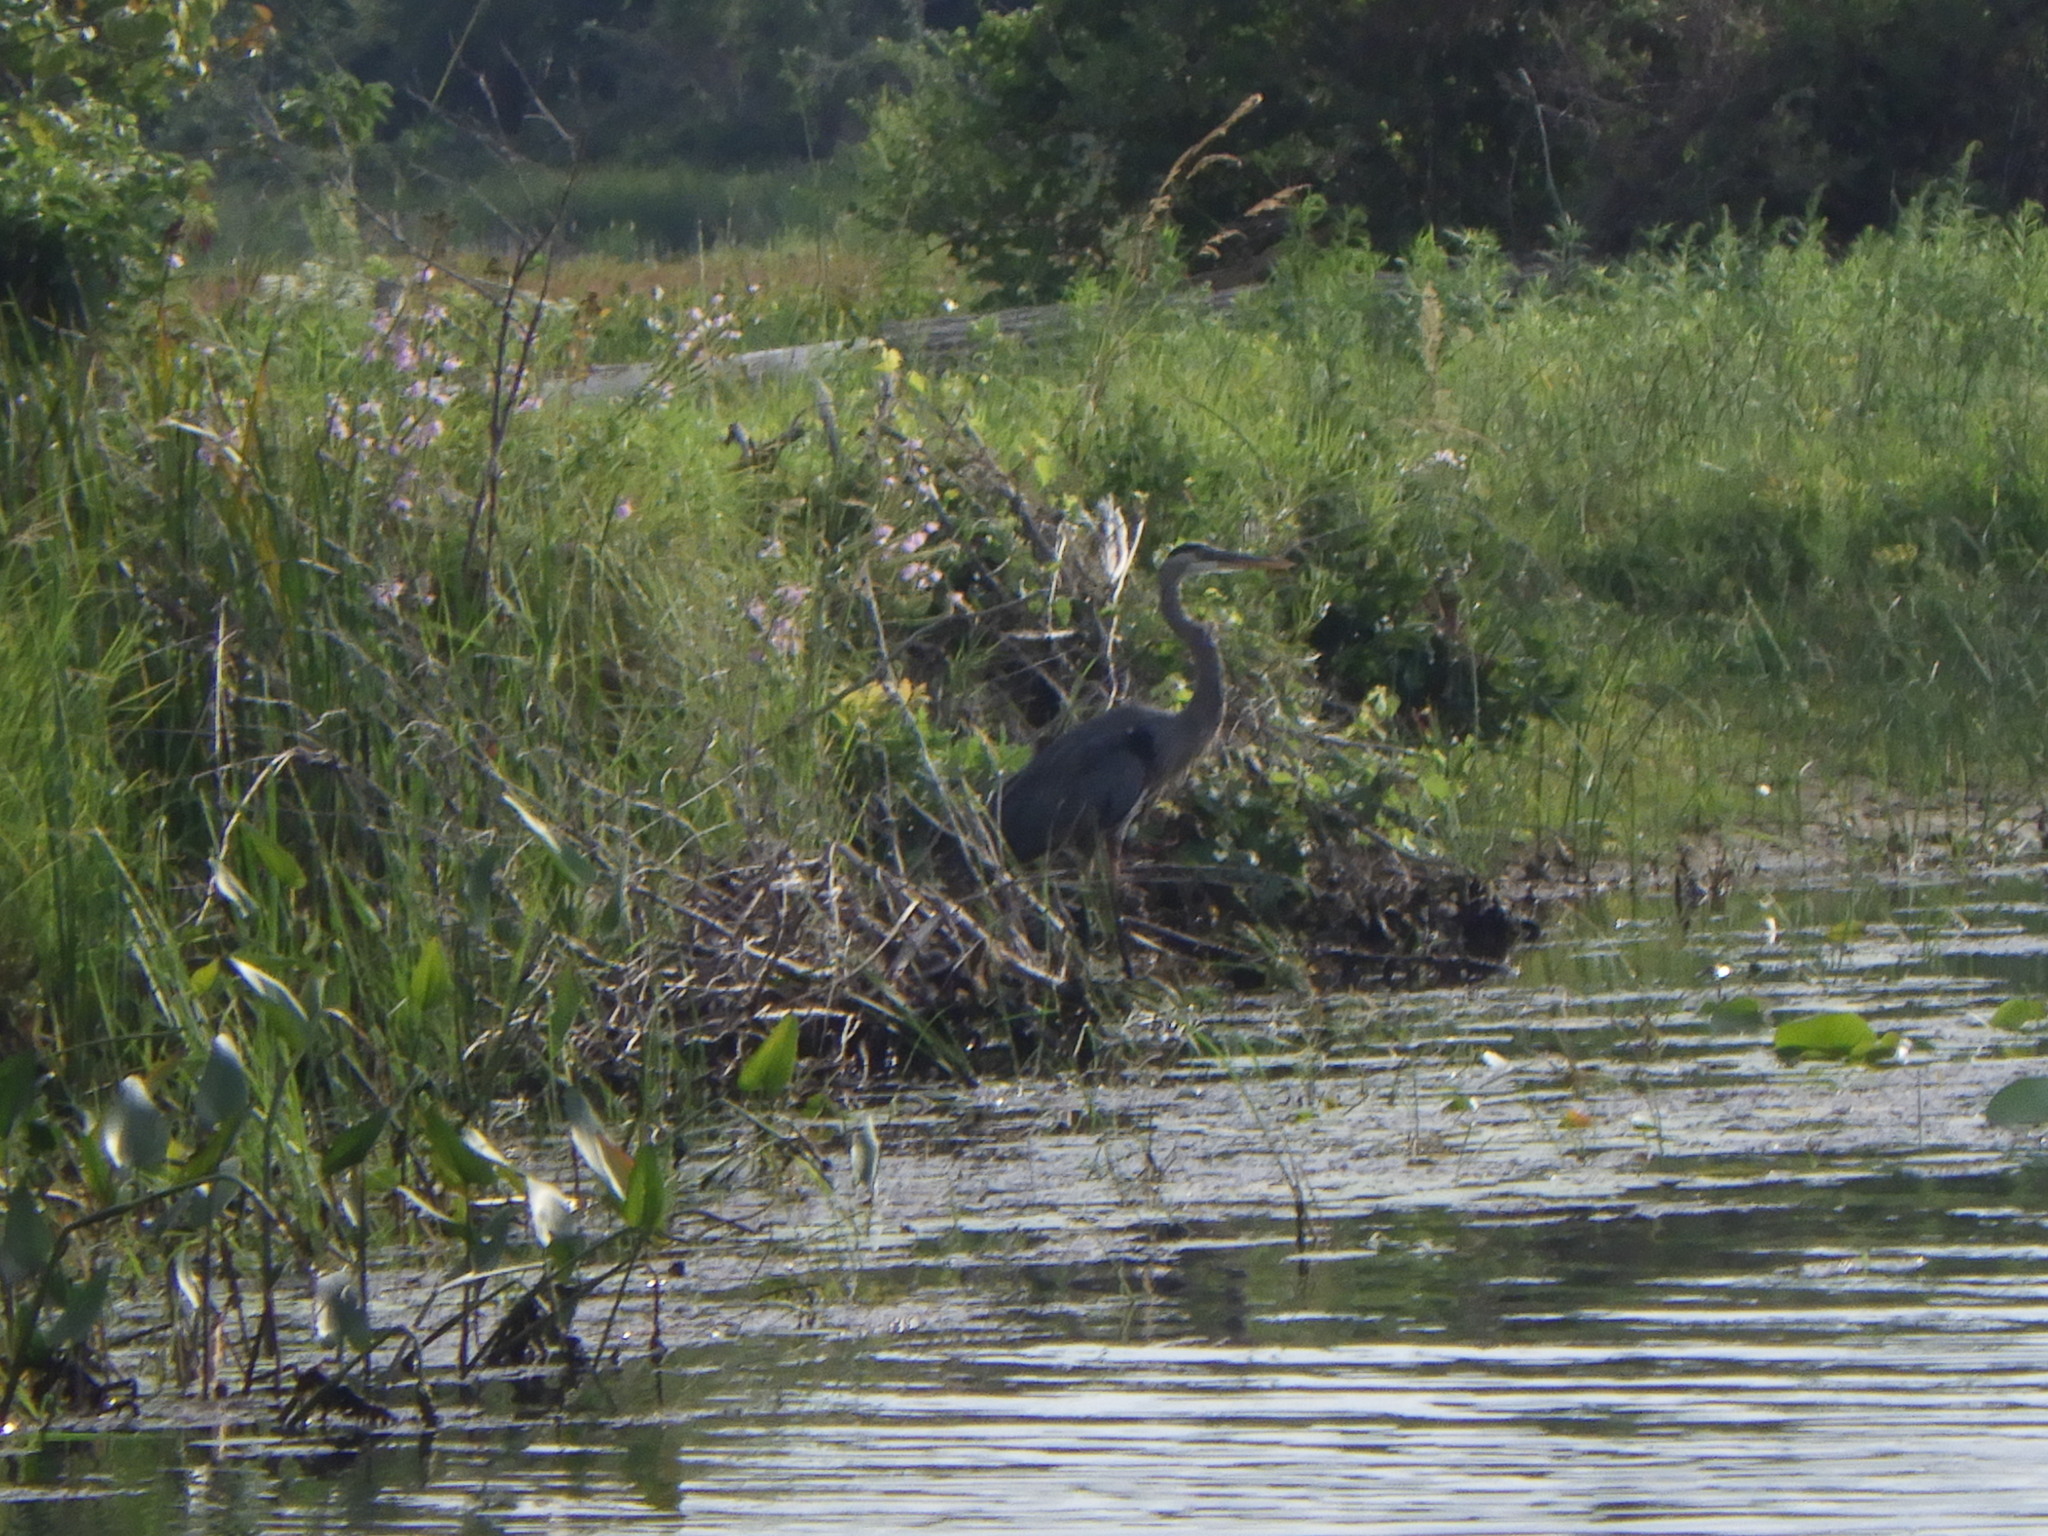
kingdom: Animalia
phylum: Chordata
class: Aves
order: Pelecaniformes
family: Ardeidae
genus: Ardea
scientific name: Ardea herodias
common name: Great blue heron
